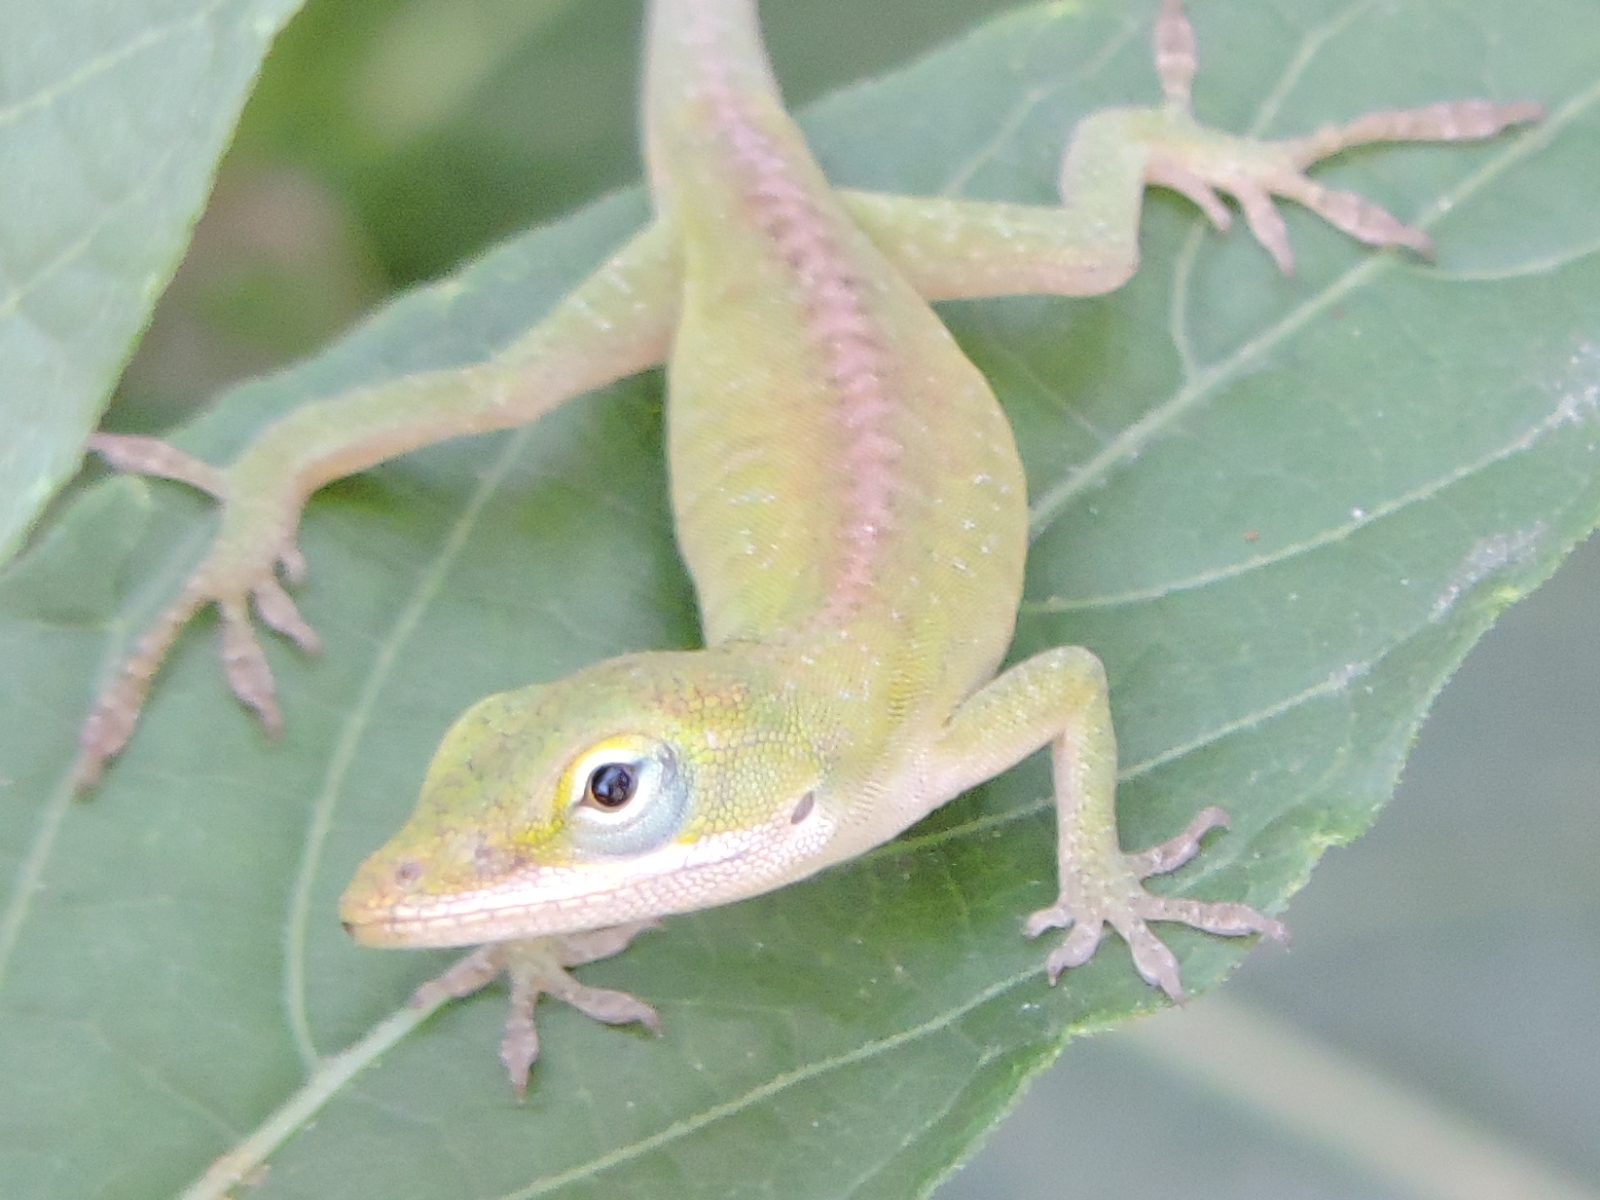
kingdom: Animalia
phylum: Chordata
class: Squamata
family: Dactyloidae
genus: Anolis
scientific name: Anolis carolinensis
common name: Green anole
